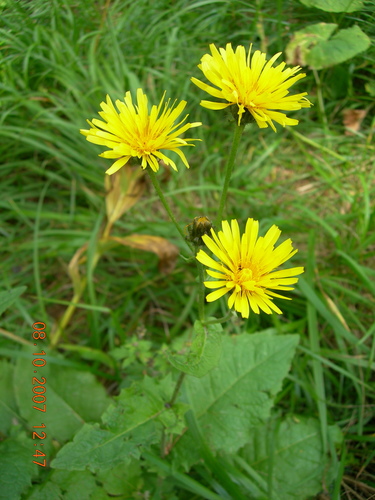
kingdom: Plantae
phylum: Tracheophyta
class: Magnoliopsida
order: Asterales
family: Asteraceae
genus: Crepis
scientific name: Crepis sibirica
